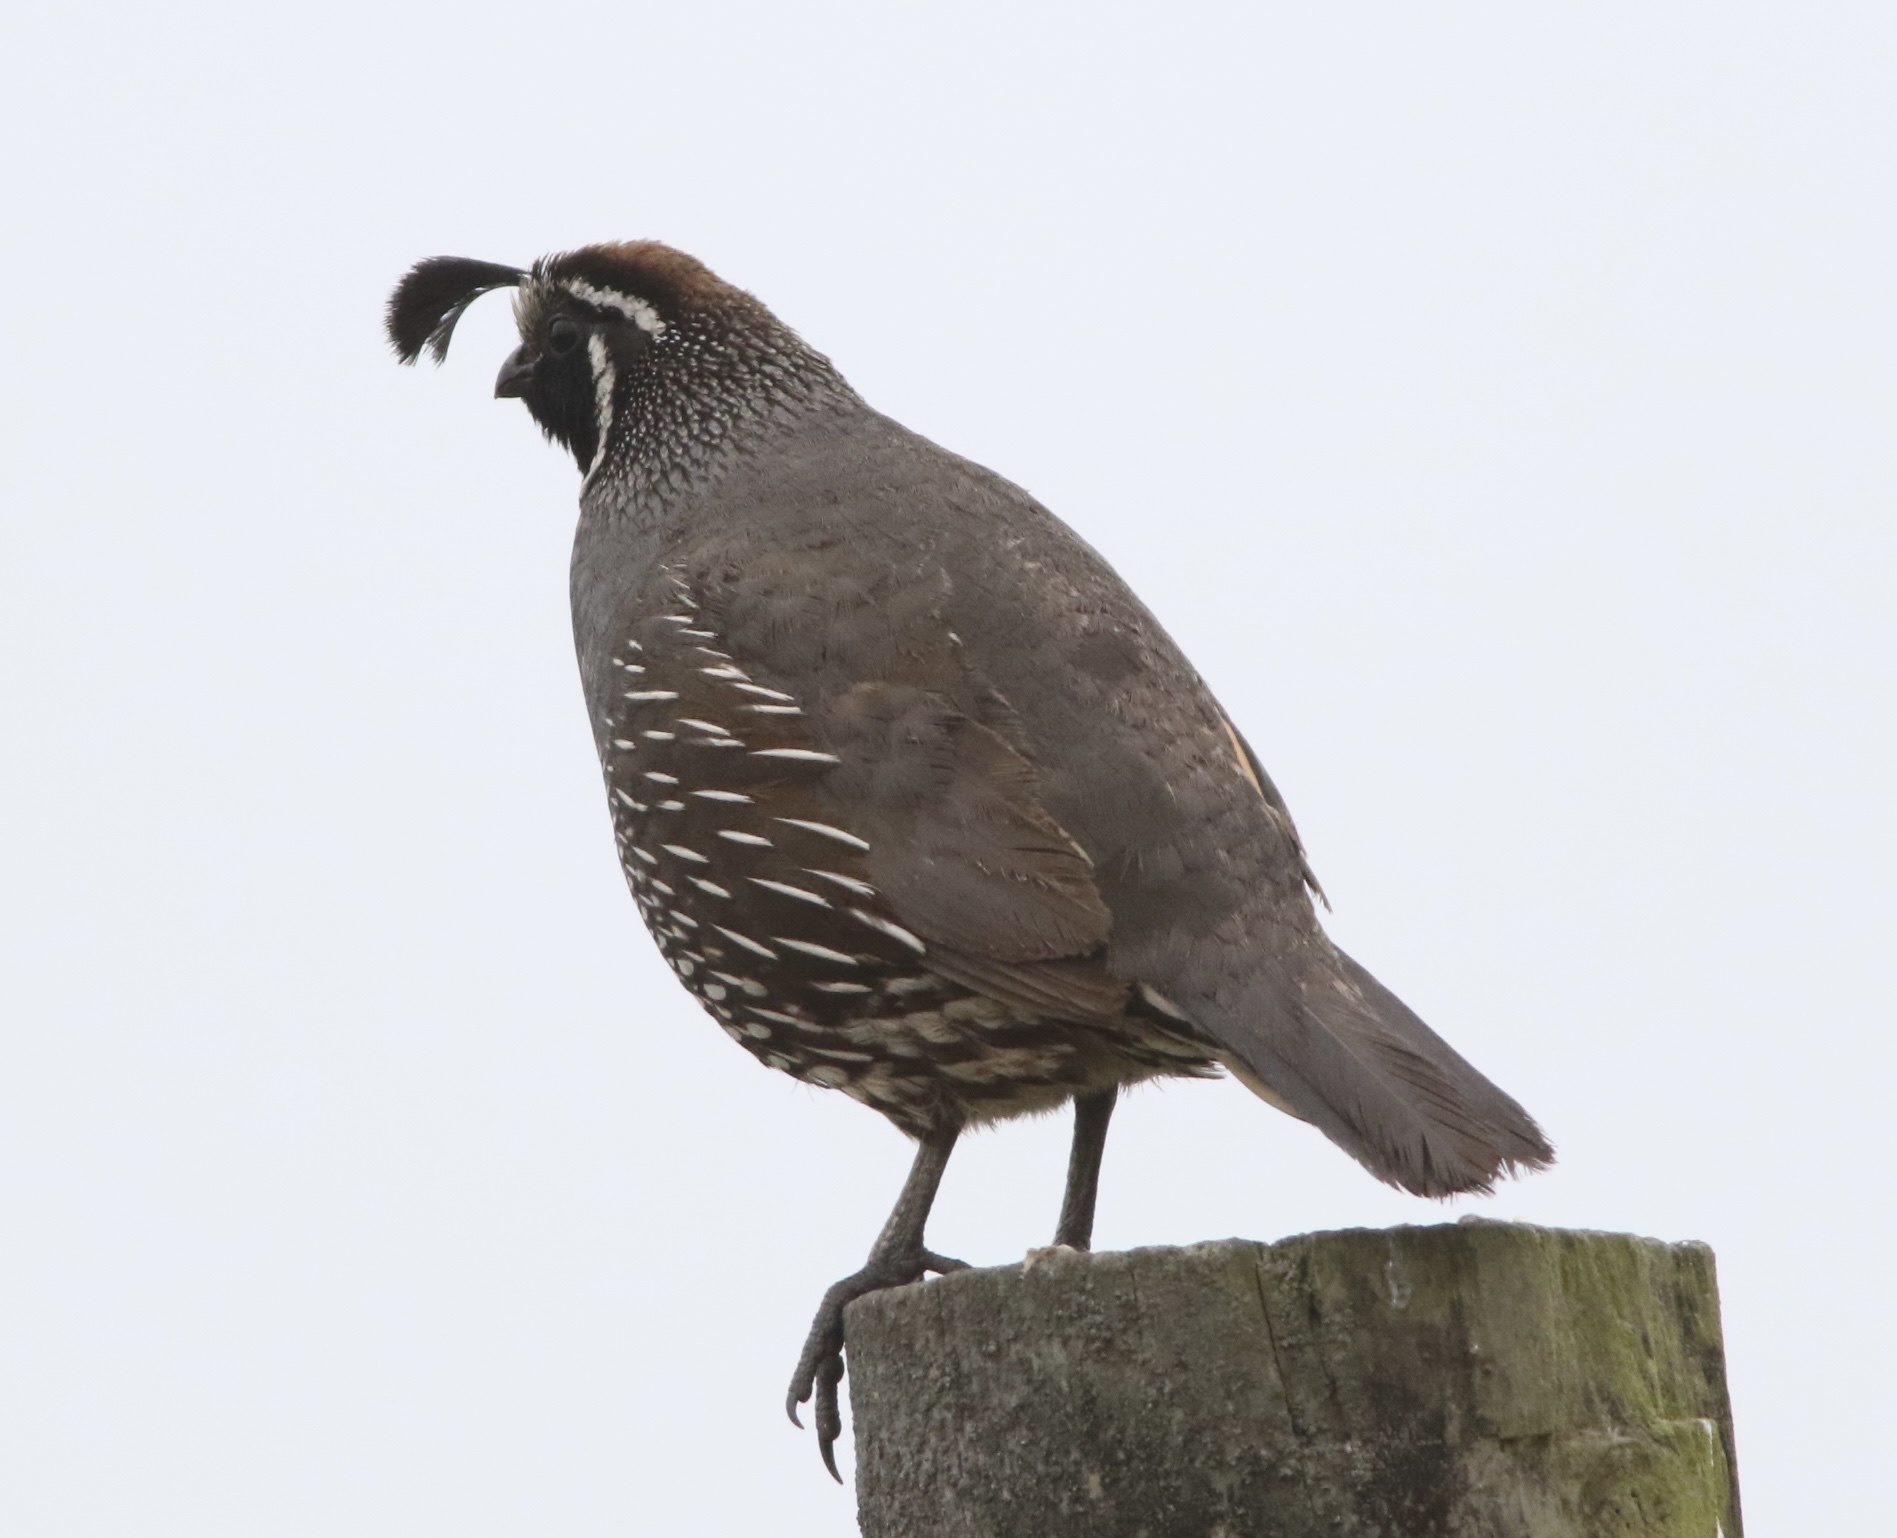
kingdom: Animalia
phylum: Chordata
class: Aves
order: Galliformes
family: Odontophoridae
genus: Callipepla
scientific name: Callipepla californica
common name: California quail
